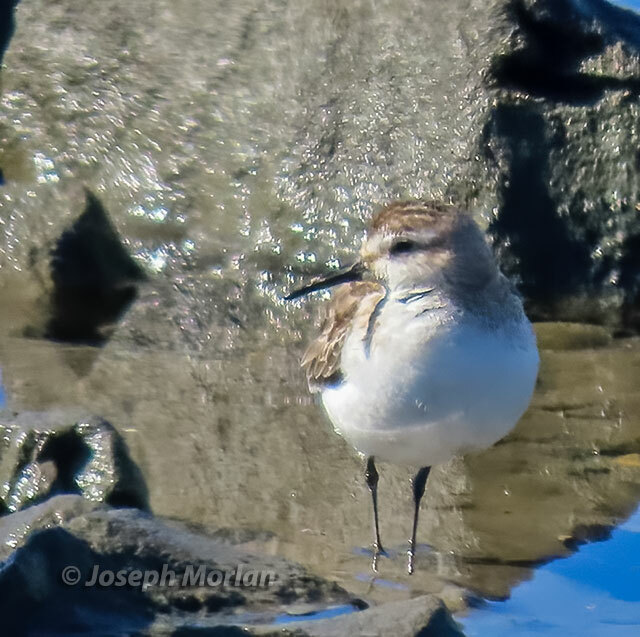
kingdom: Animalia
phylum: Chordata
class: Aves
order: Charadriiformes
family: Scolopacidae
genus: Calidris
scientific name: Calidris mauri
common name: Western sandpiper
